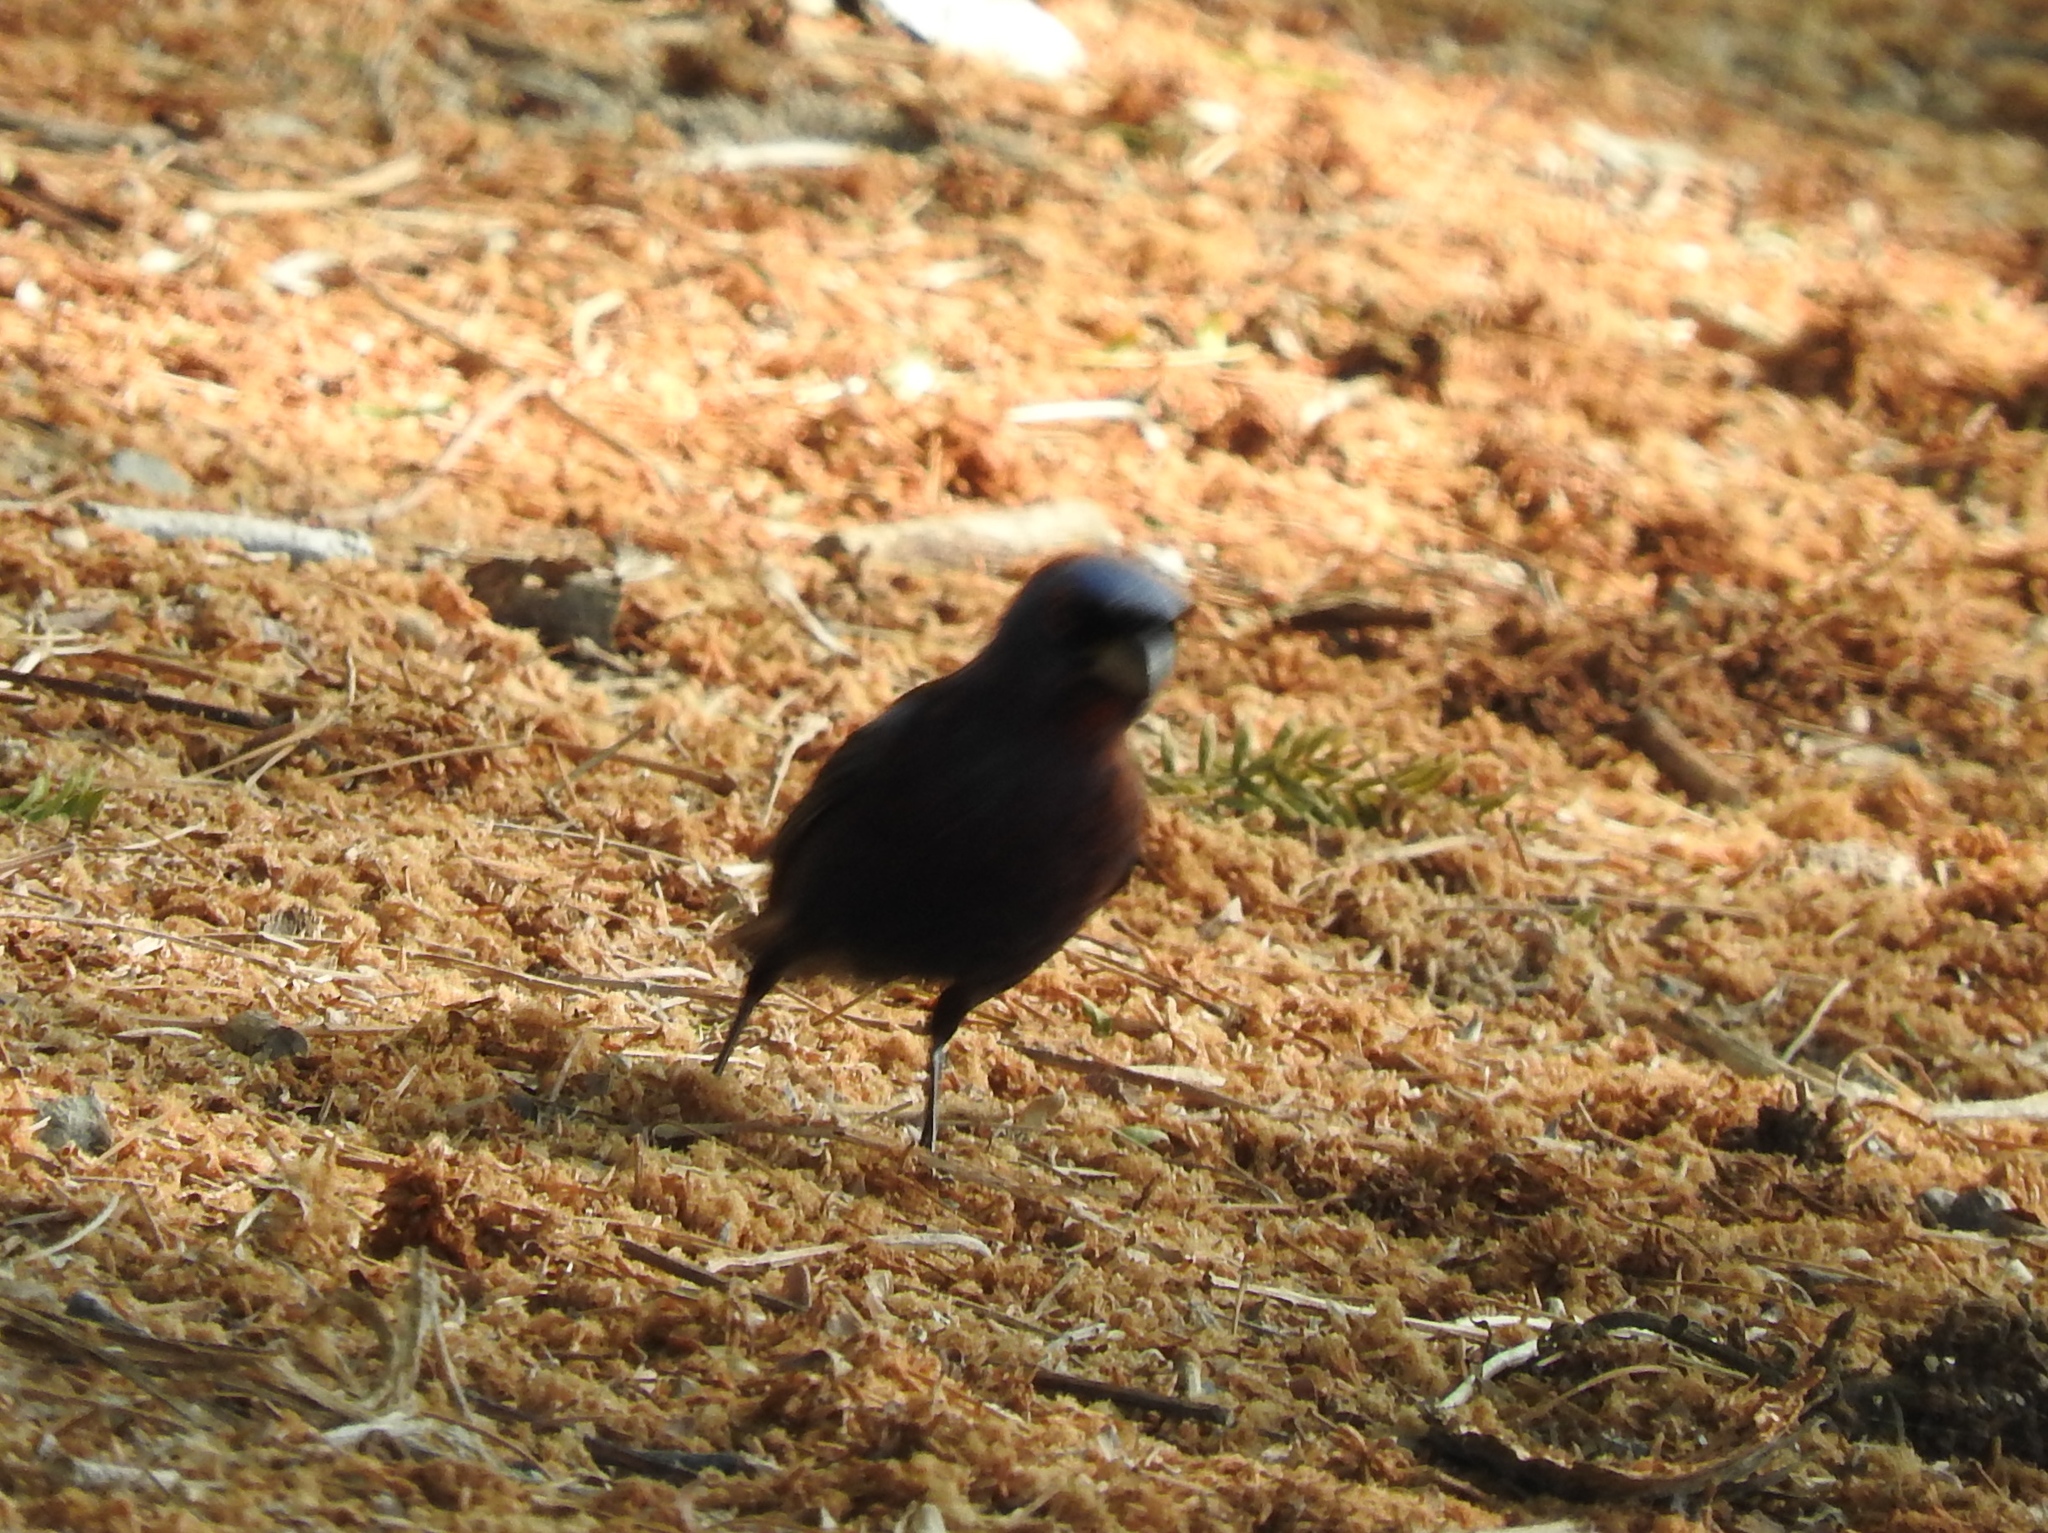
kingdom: Animalia
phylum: Chordata
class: Aves
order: Passeriformes
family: Cardinalidae
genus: Passerina
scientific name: Passerina versicolor
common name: Varied bunting
